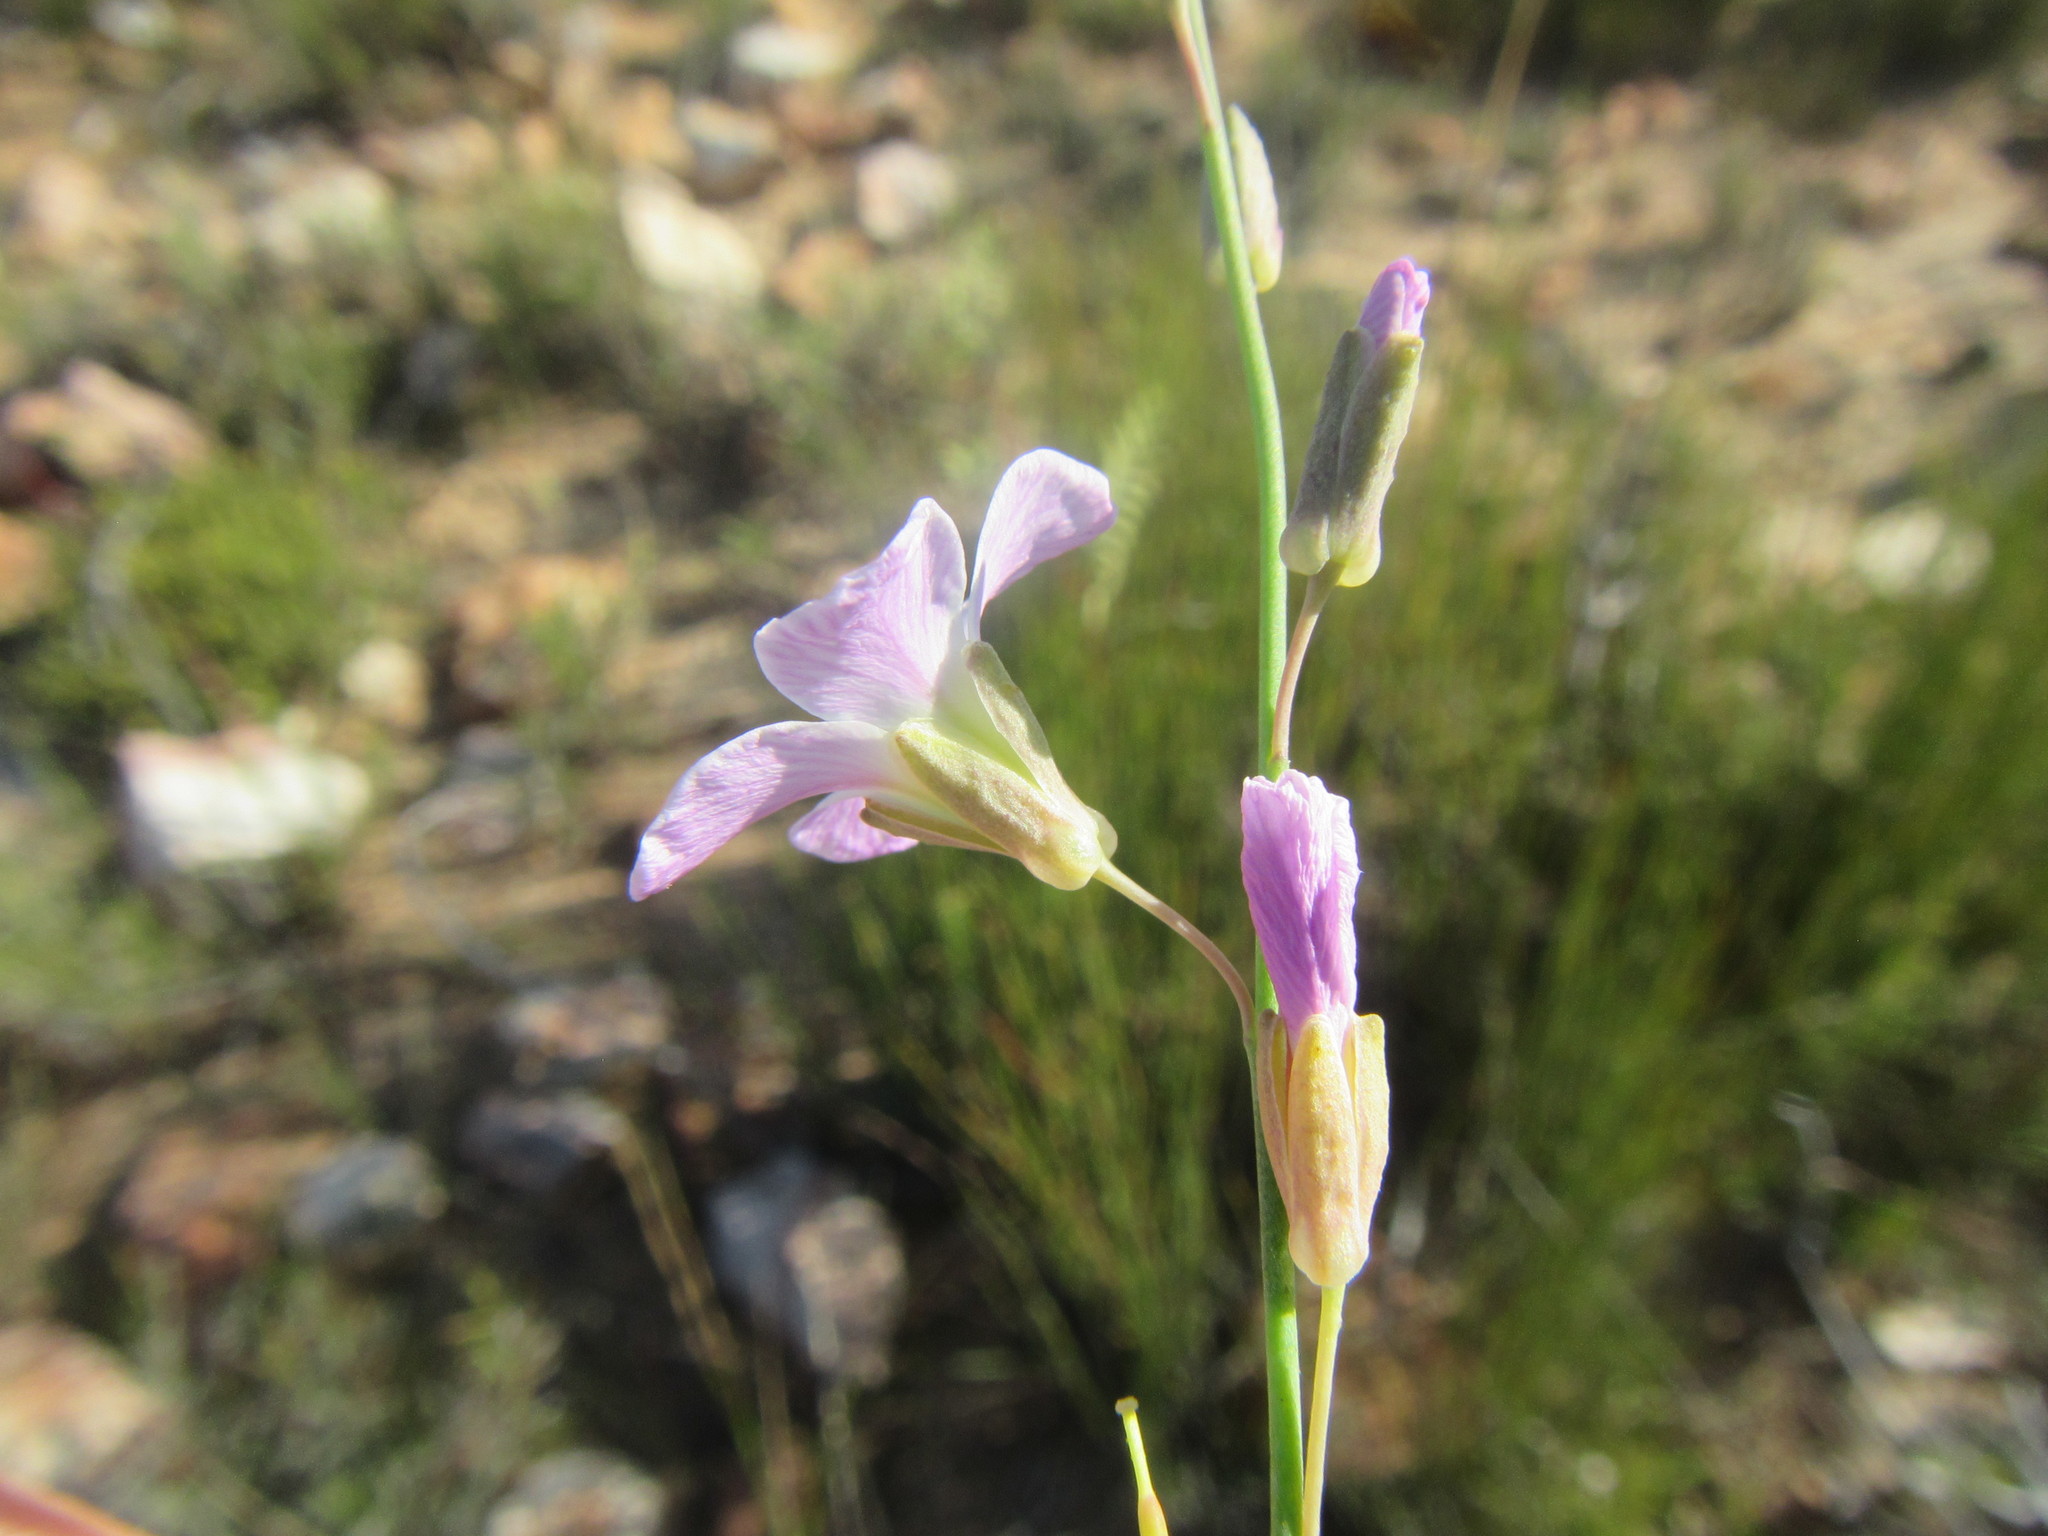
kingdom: Plantae
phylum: Tracheophyta
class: Magnoliopsida
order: Brassicales
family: Brassicaceae
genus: Heliophila
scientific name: Heliophila glauca
